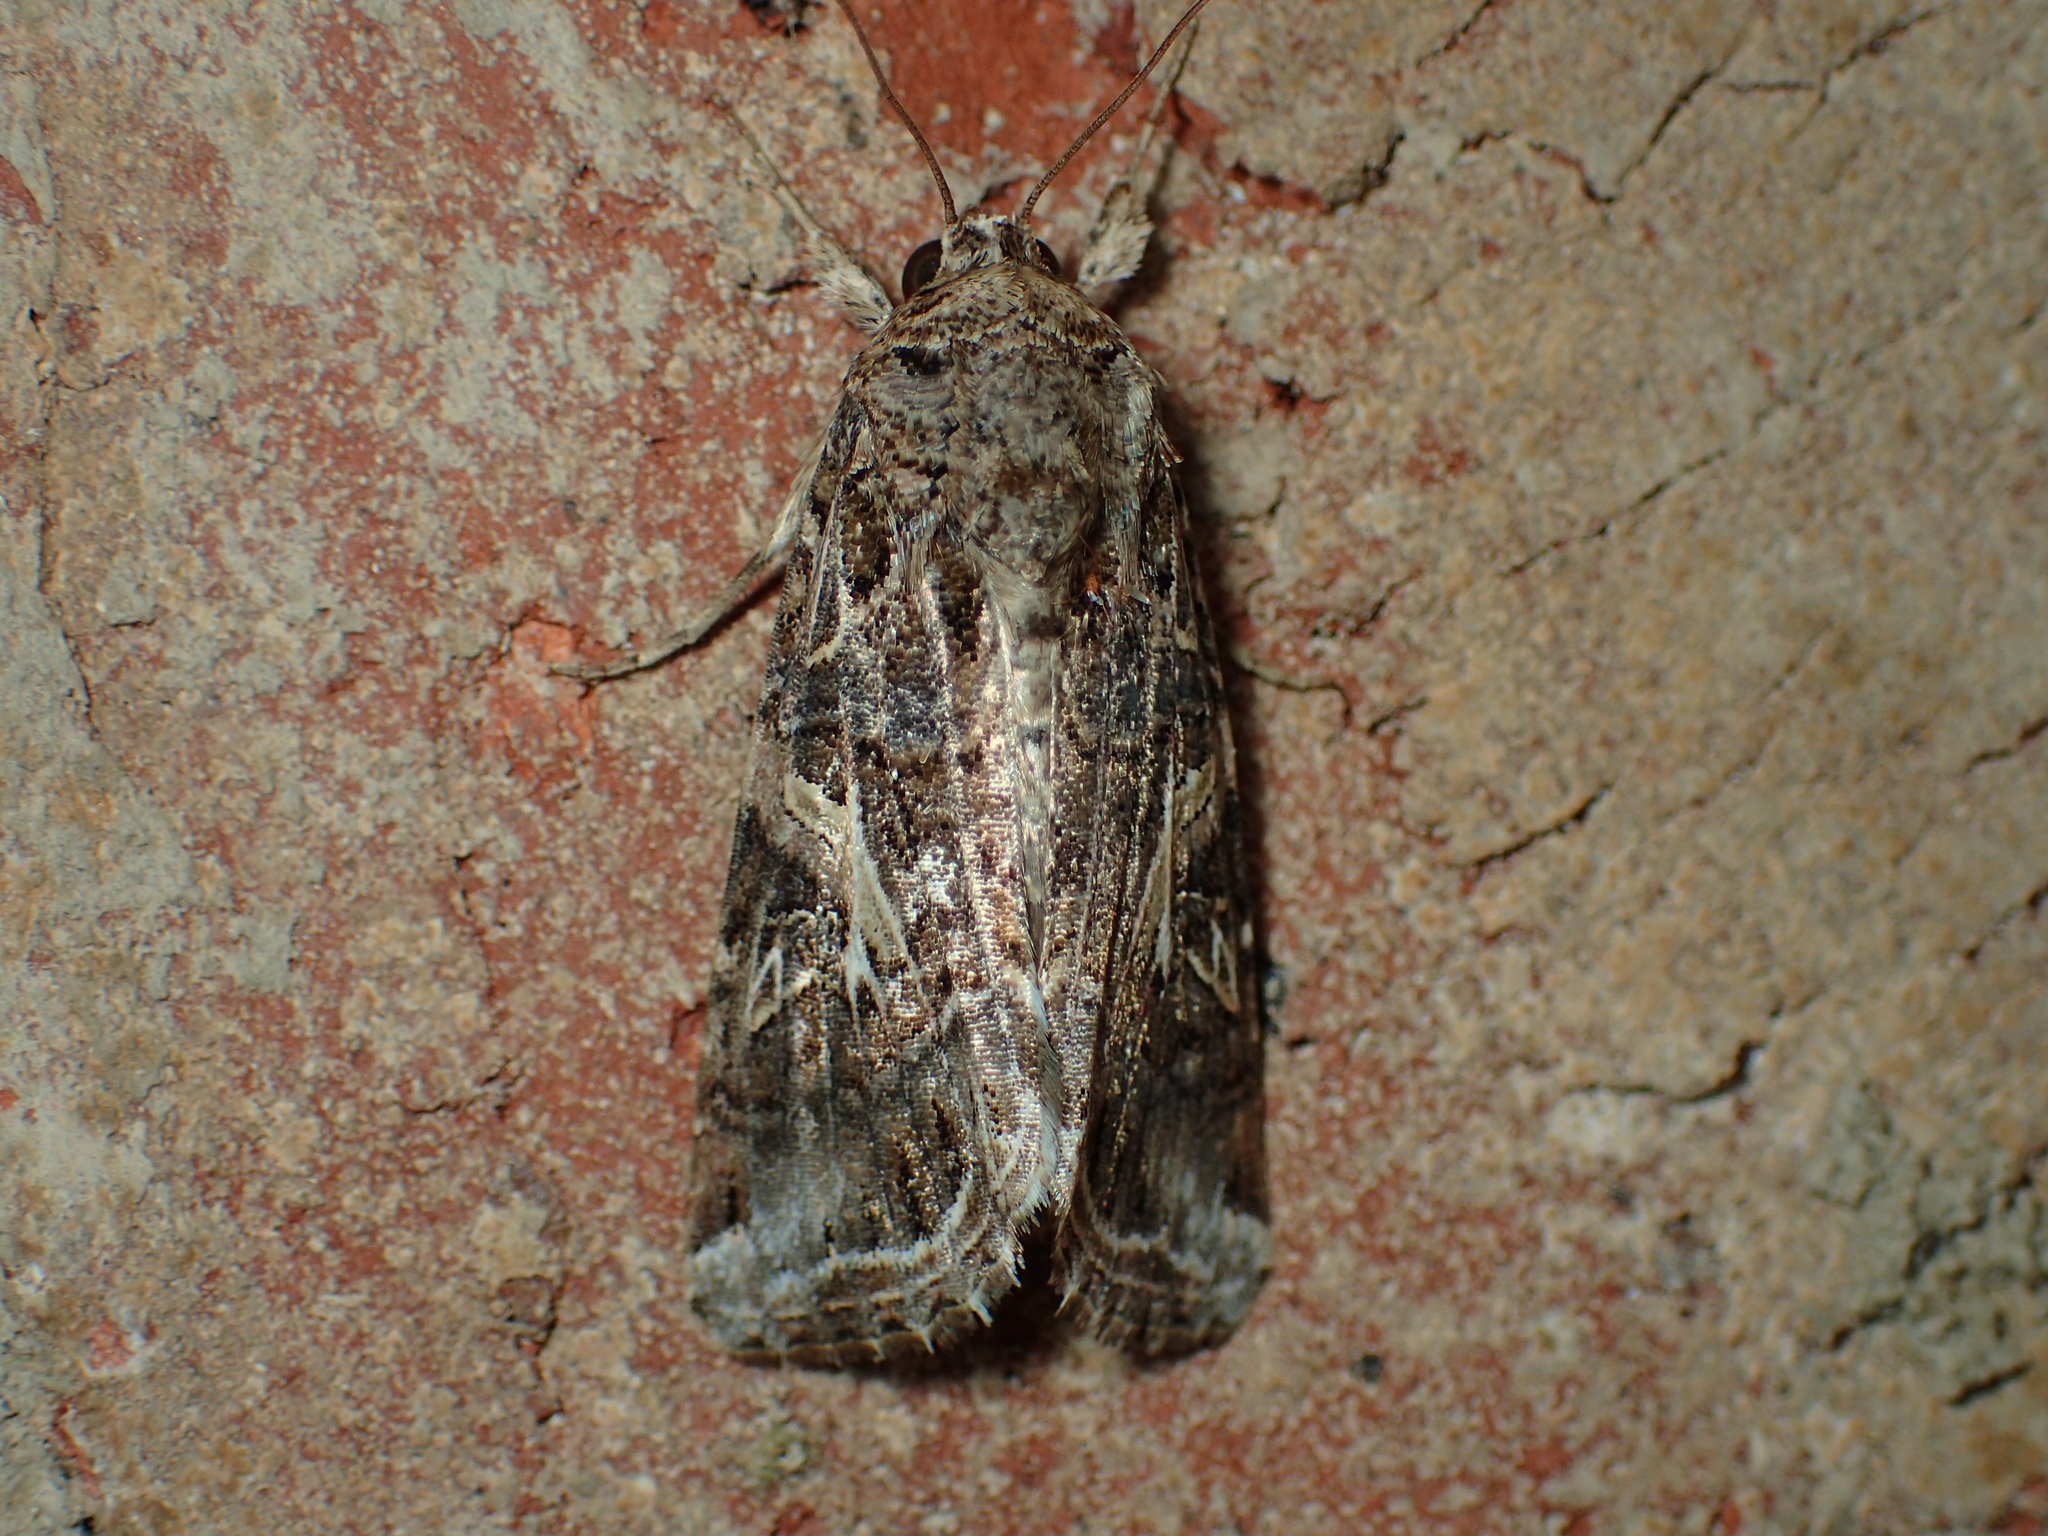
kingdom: Animalia
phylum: Arthropoda
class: Insecta
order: Lepidoptera
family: Noctuidae
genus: Spodoptera
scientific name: Spodoptera ornithogalli
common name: Yellow-striped armyworm
